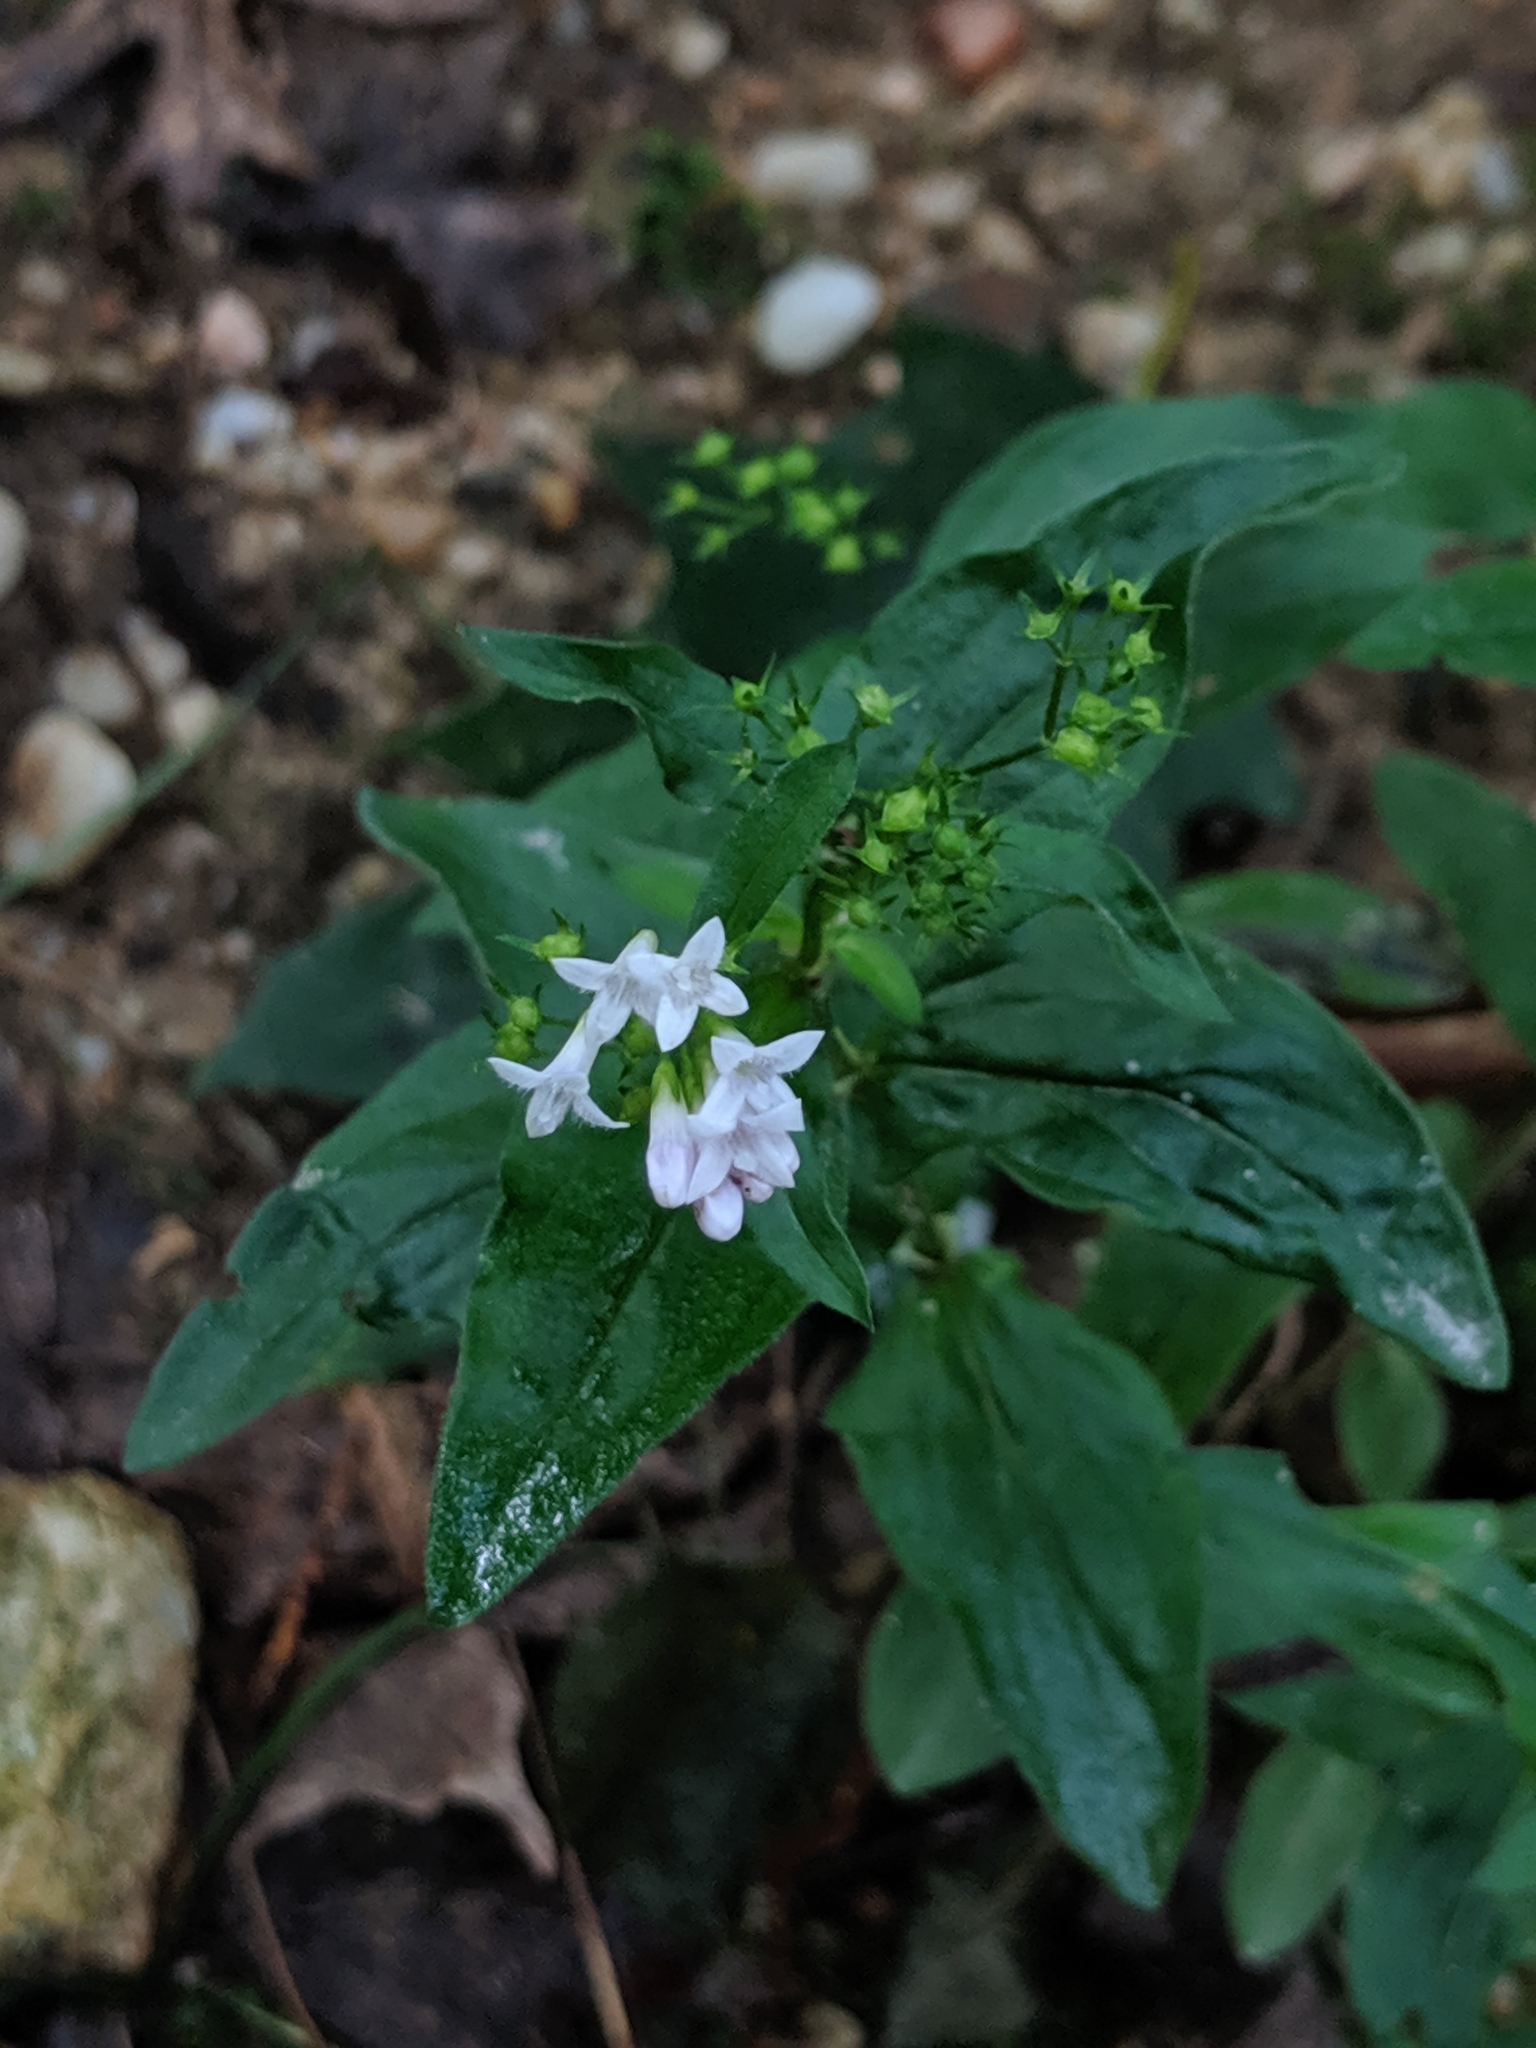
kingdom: Plantae
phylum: Tracheophyta
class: Magnoliopsida
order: Gentianales
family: Rubiaceae
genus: Houstonia
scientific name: Houstonia purpurea
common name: Summer bluet
